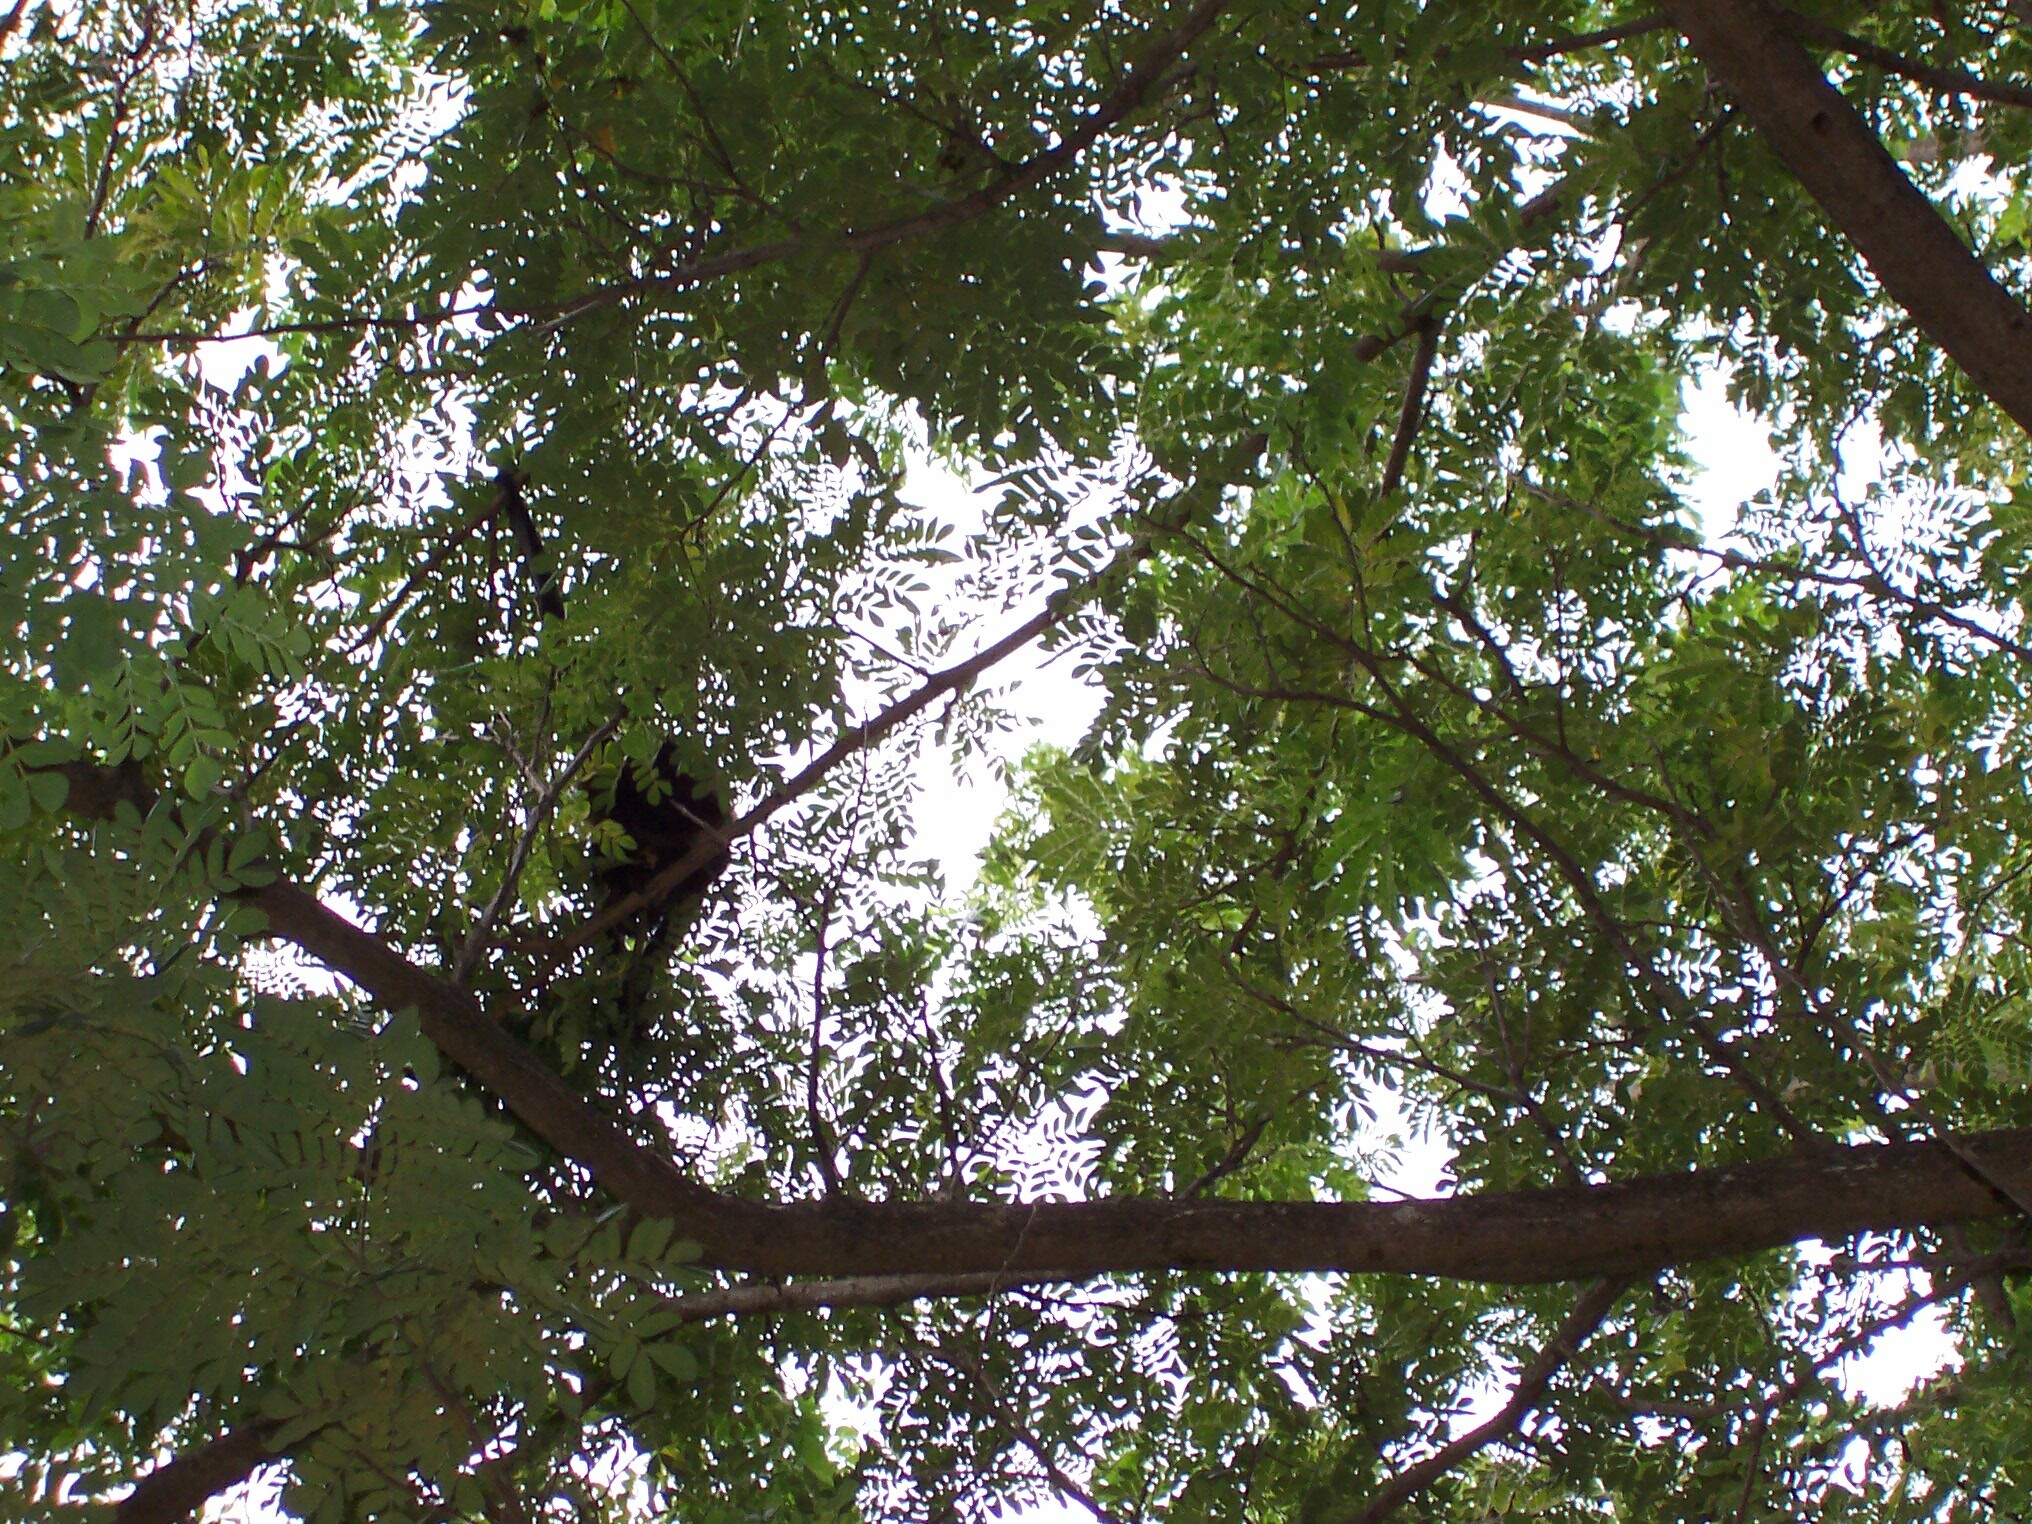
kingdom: Animalia
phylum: Chordata
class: Mammalia
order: Primates
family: Atelidae
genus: Alouatta
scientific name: Alouatta palliata
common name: Mantled howler
